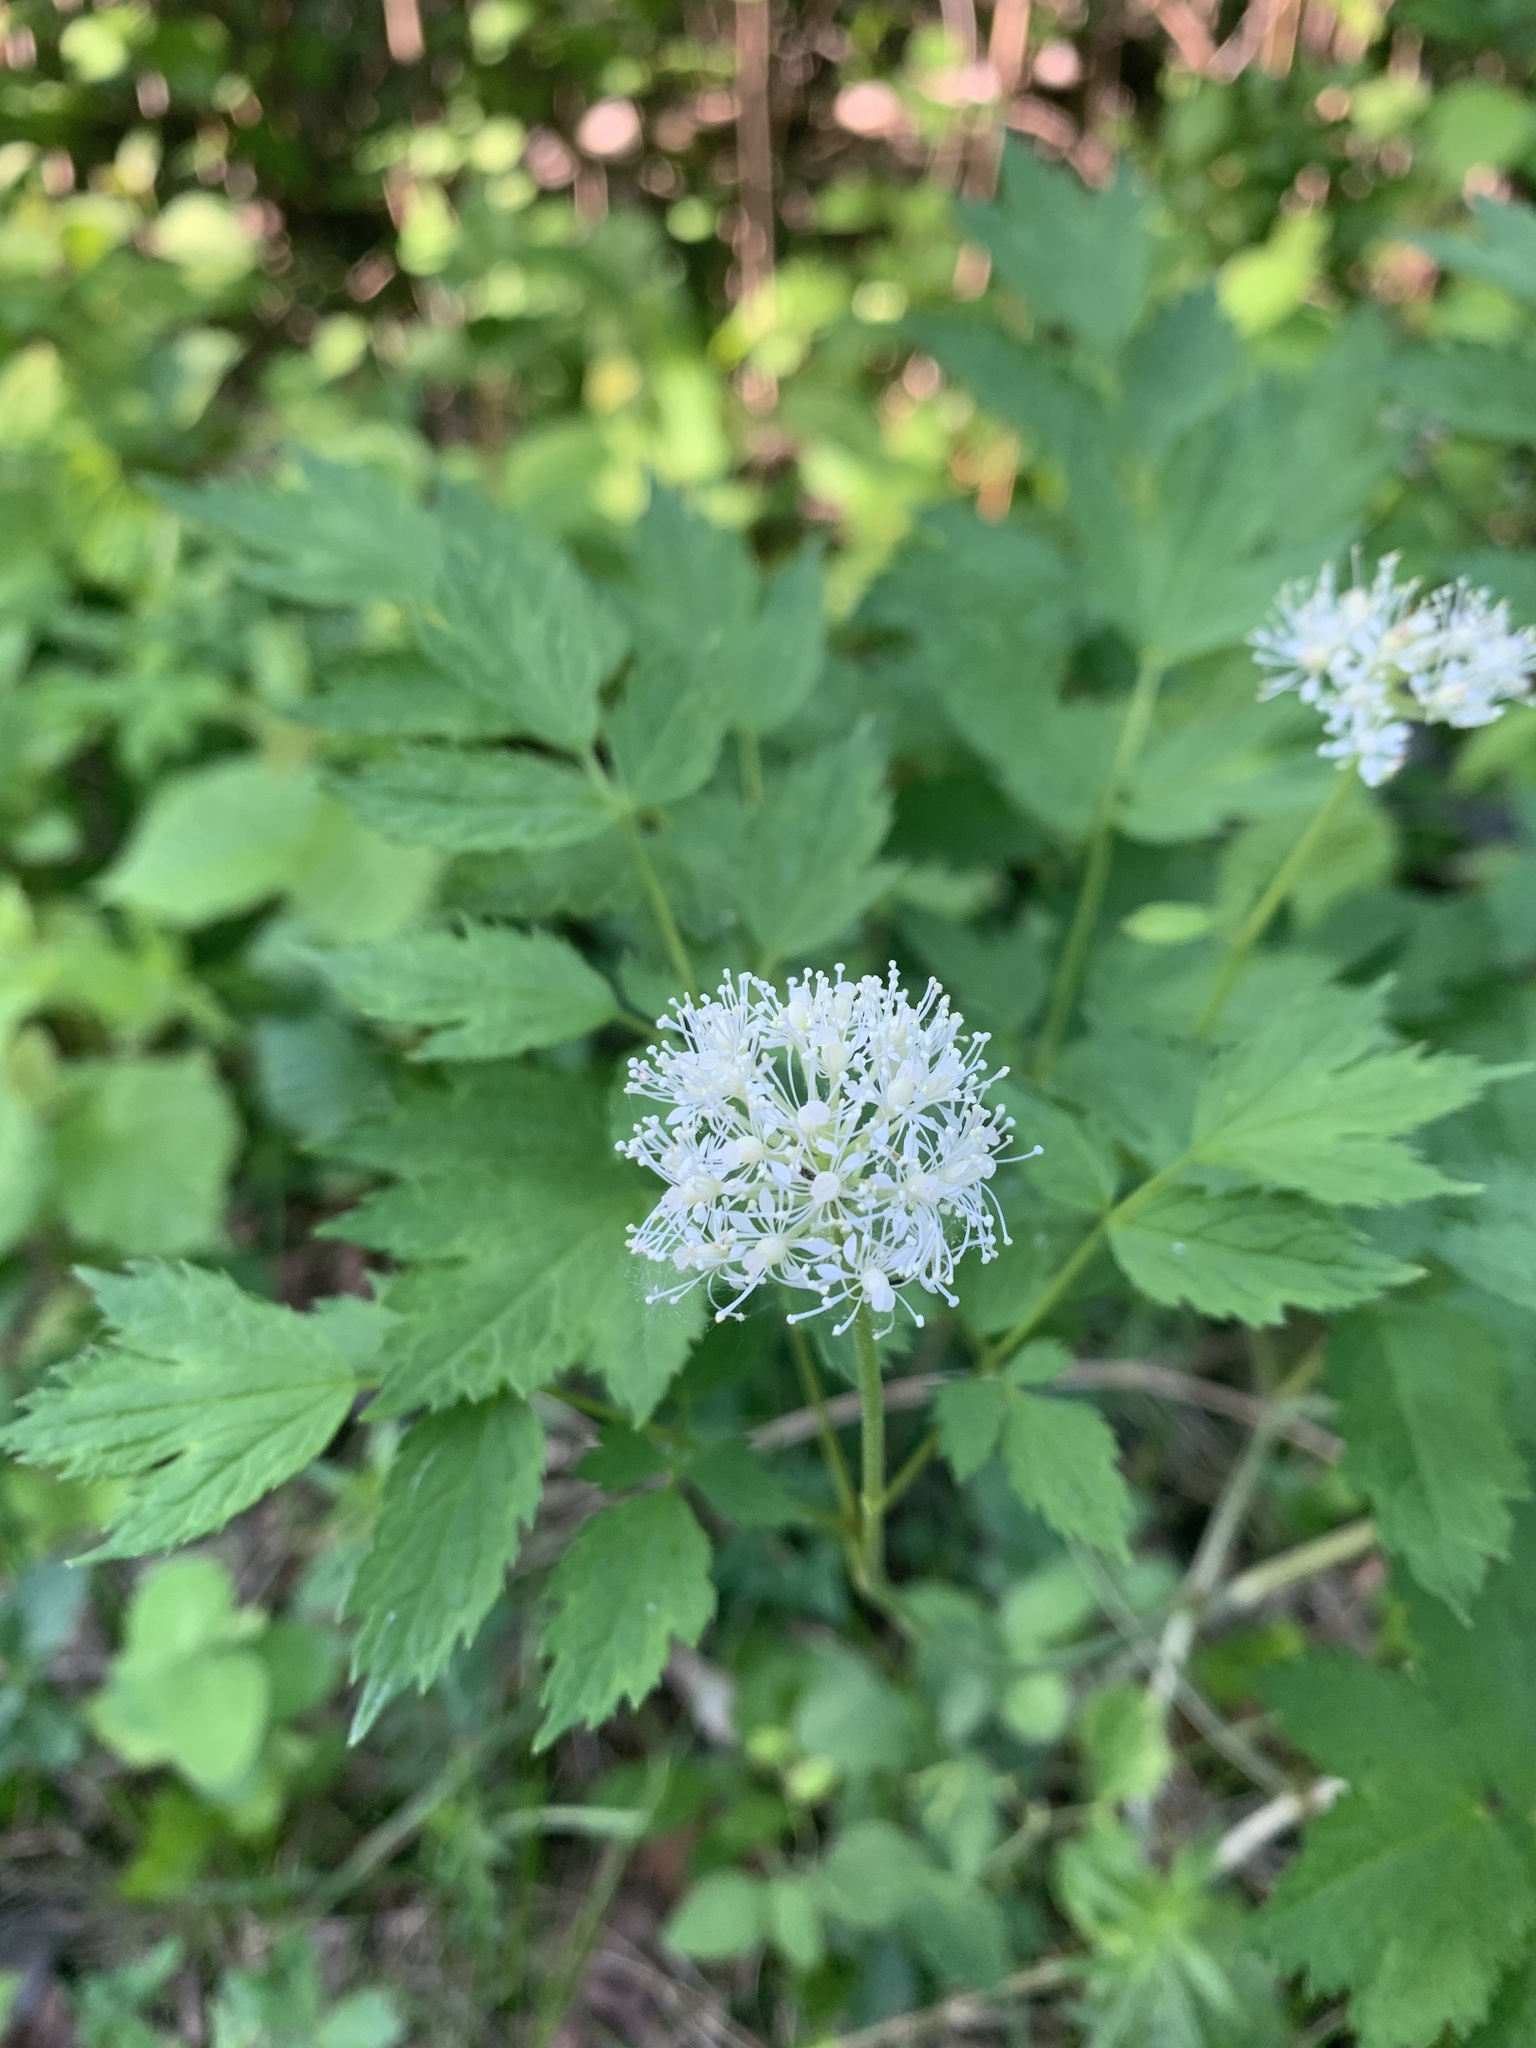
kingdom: Plantae
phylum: Tracheophyta
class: Magnoliopsida
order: Ranunculales
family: Ranunculaceae
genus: Actaea
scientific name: Actaea rubra
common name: Red baneberry
